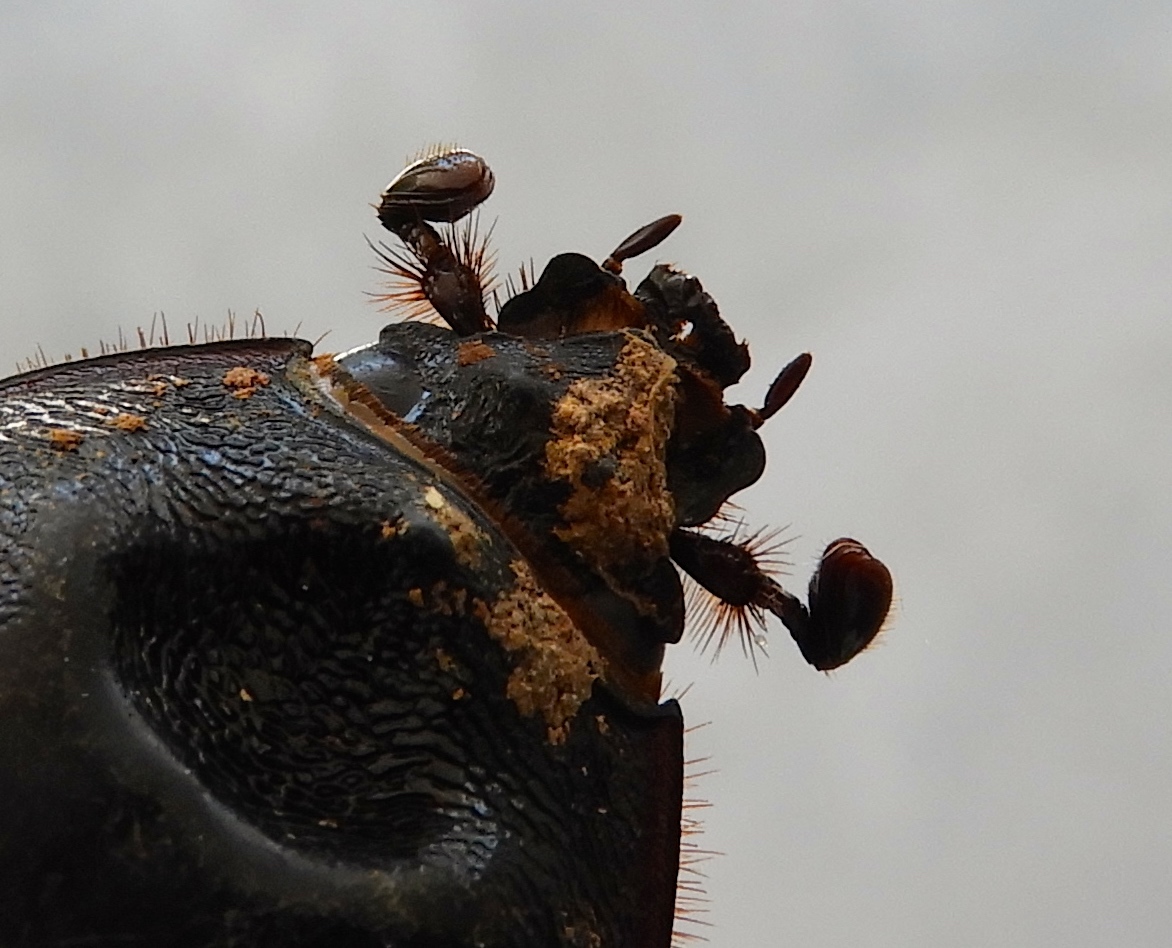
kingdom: Animalia
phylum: Arthropoda
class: Insecta
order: Coleoptera
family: Scarabaeidae
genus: Strategus
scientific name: Strategus aloeus
